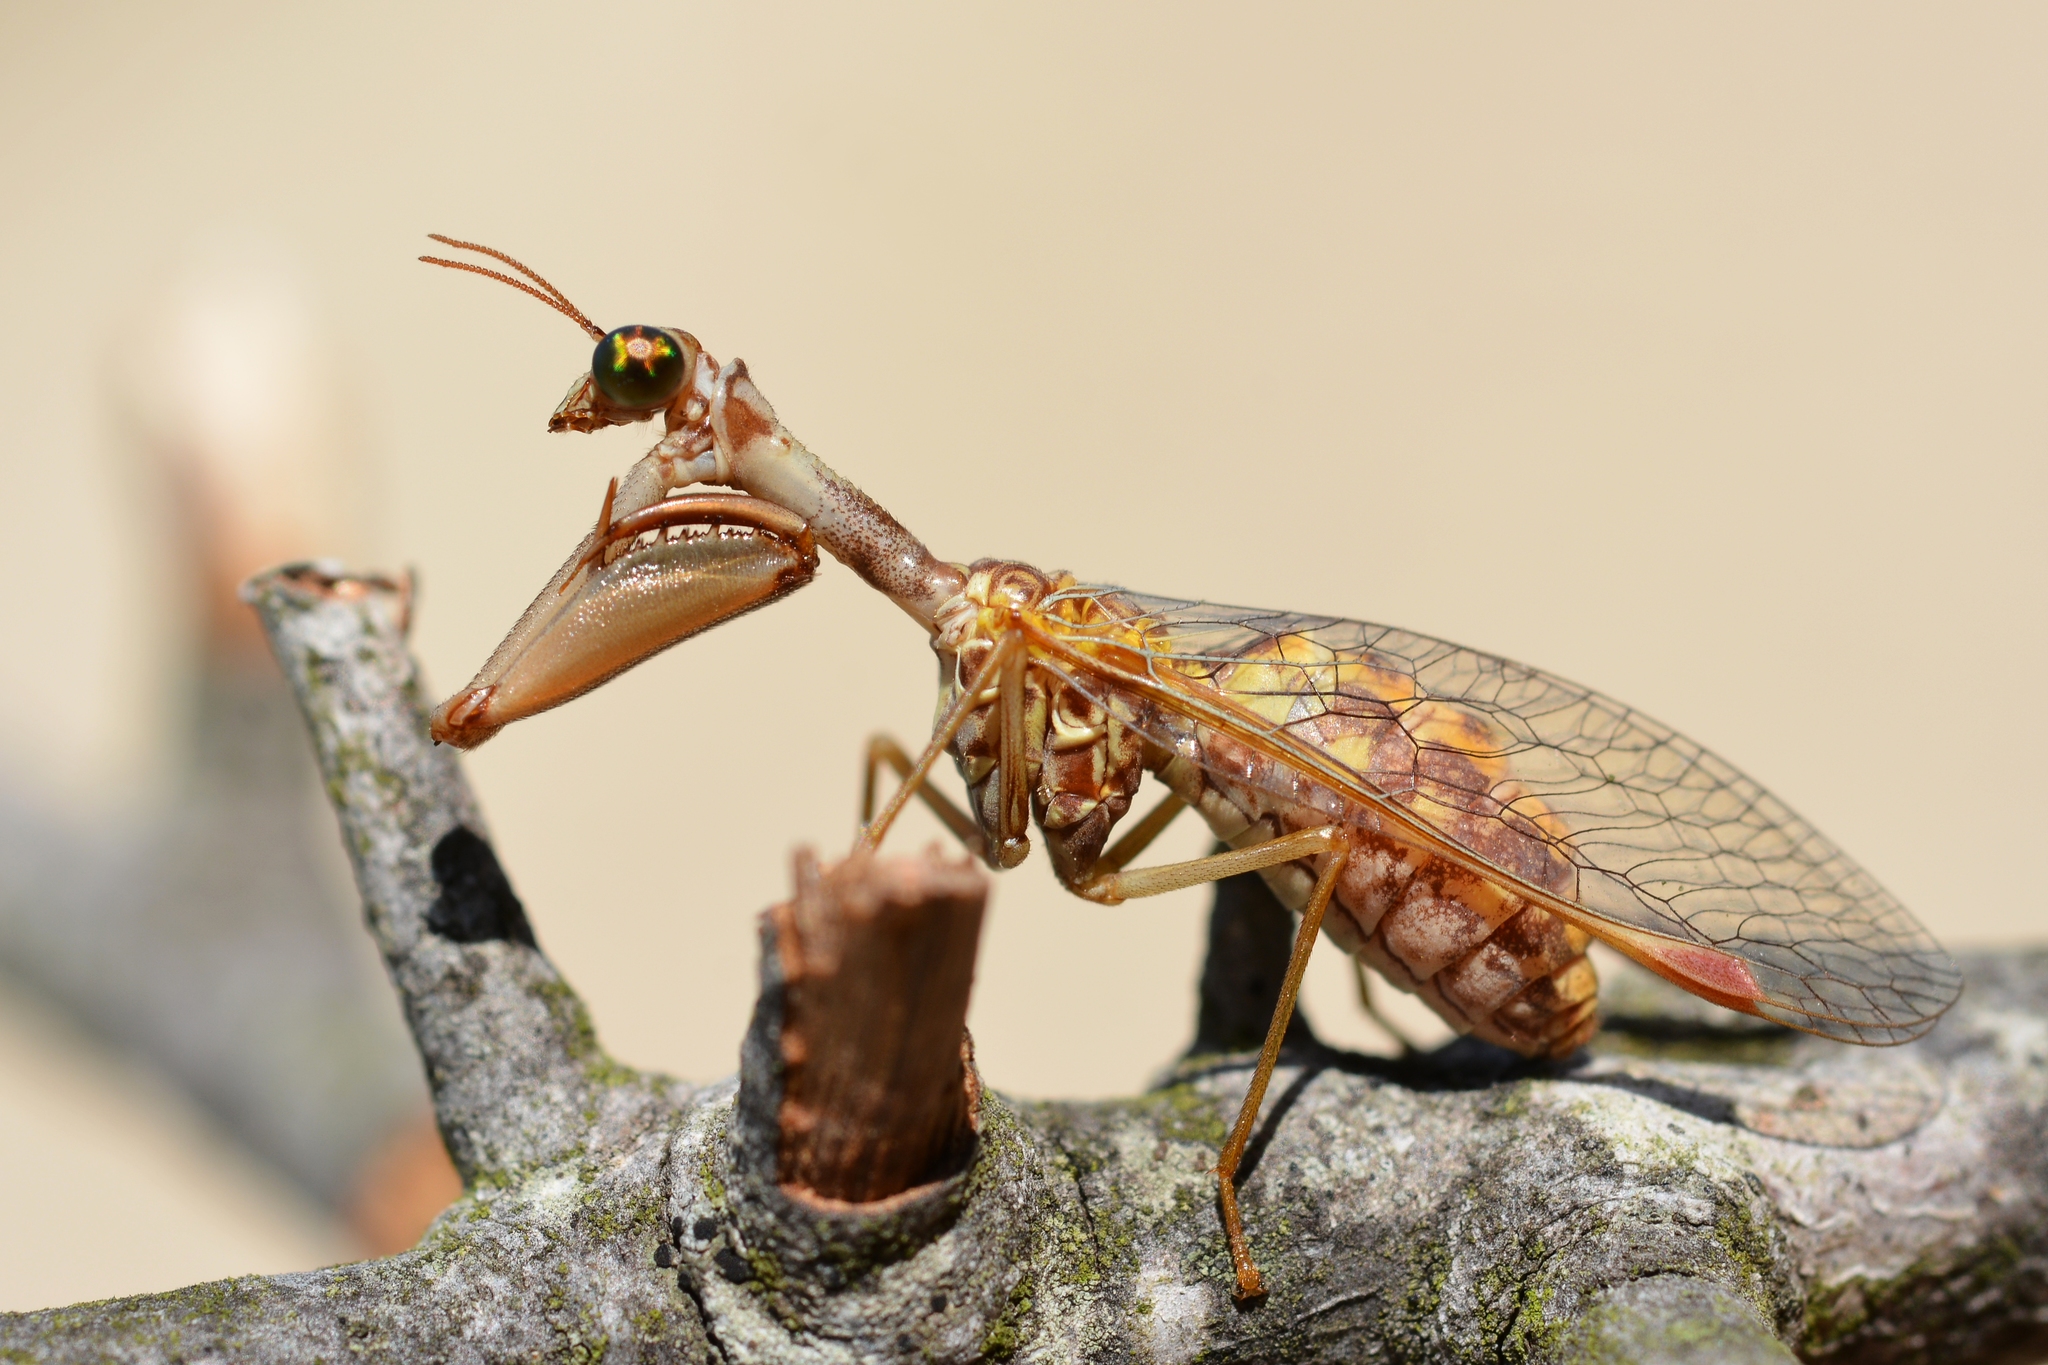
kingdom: Animalia
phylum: Arthropoda
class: Insecta
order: Neuroptera
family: Mantispidae
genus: Mantispa
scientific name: Mantispa styriaca
